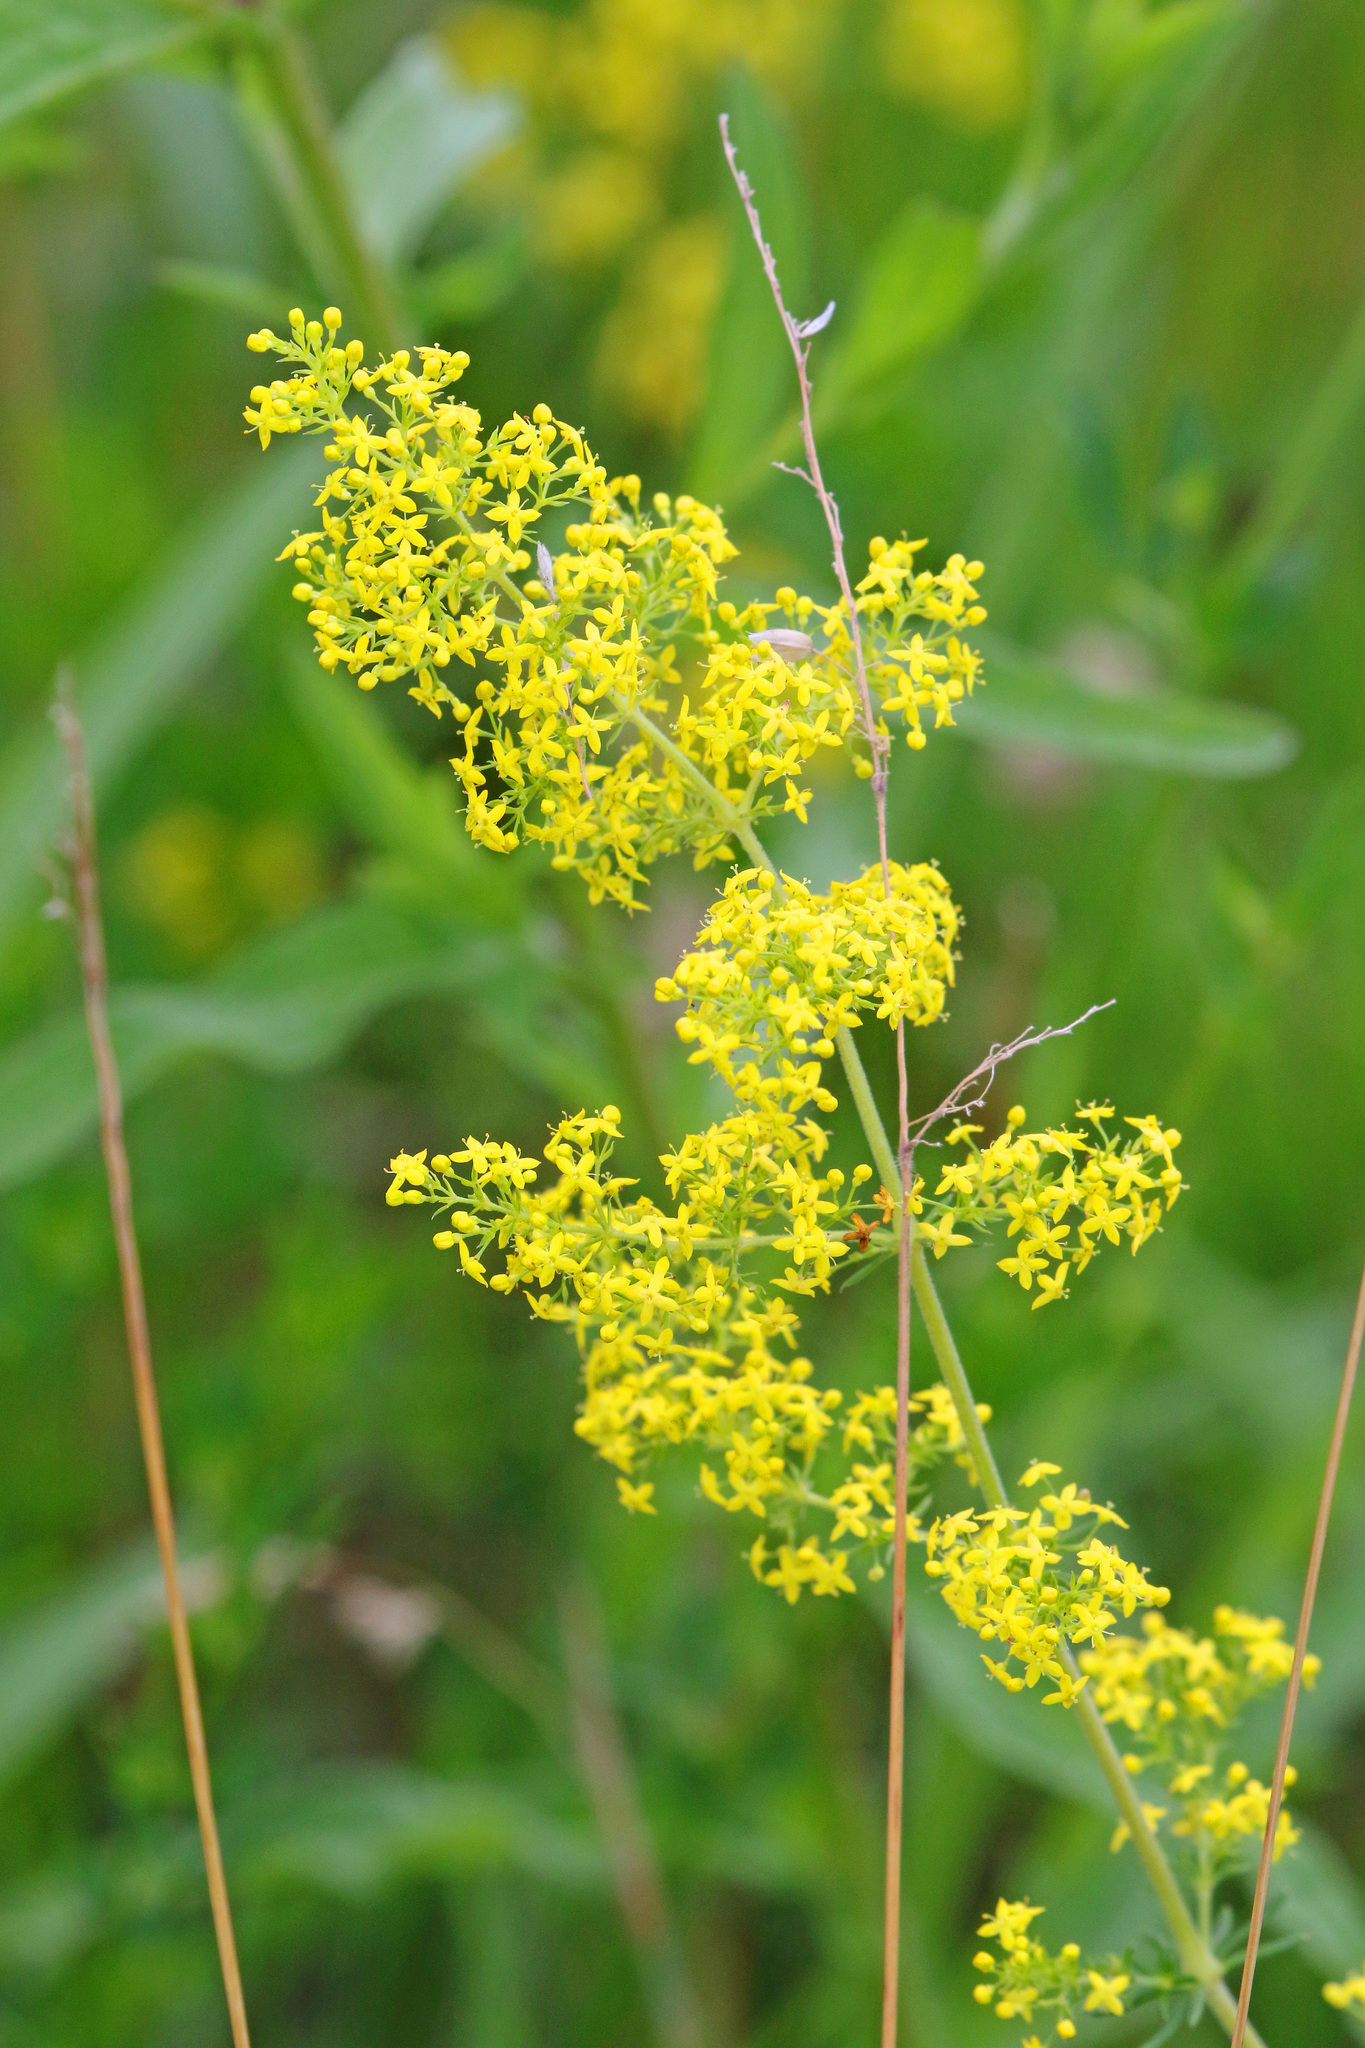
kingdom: Plantae
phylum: Tracheophyta
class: Magnoliopsida
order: Gentianales
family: Rubiaceae
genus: Galium
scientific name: Galium verum
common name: Lady's bedstraw
